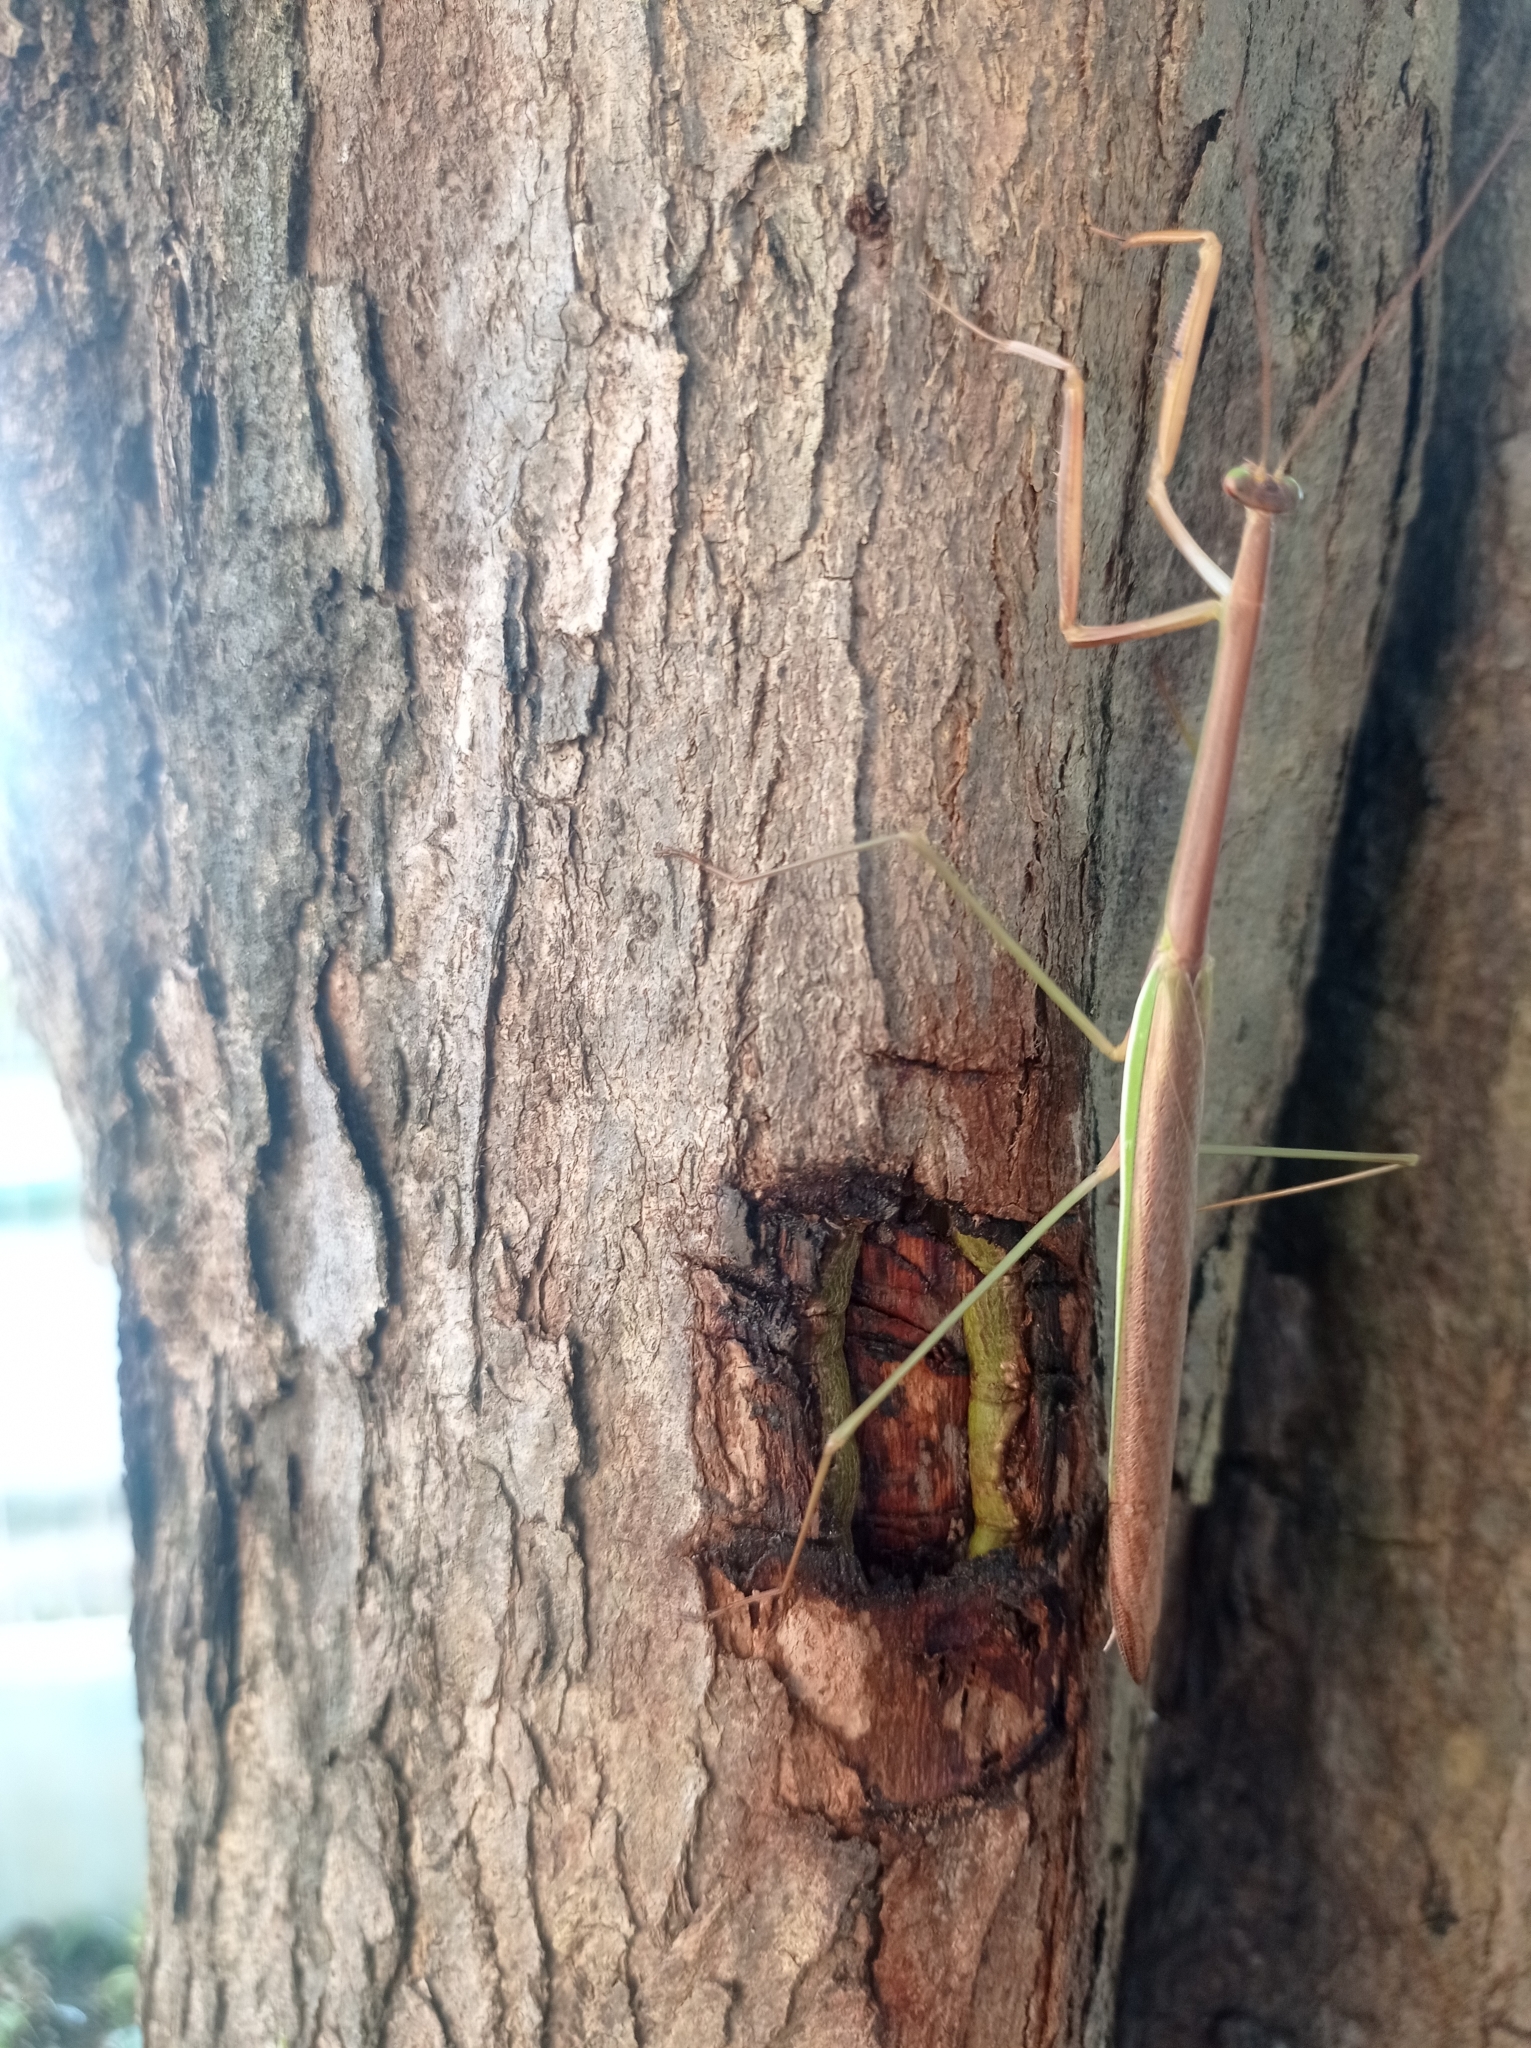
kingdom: Animalia
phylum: Arthropoda
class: Insecta
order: Mantodea
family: Mantidae
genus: Tenodera
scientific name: Tenodera
